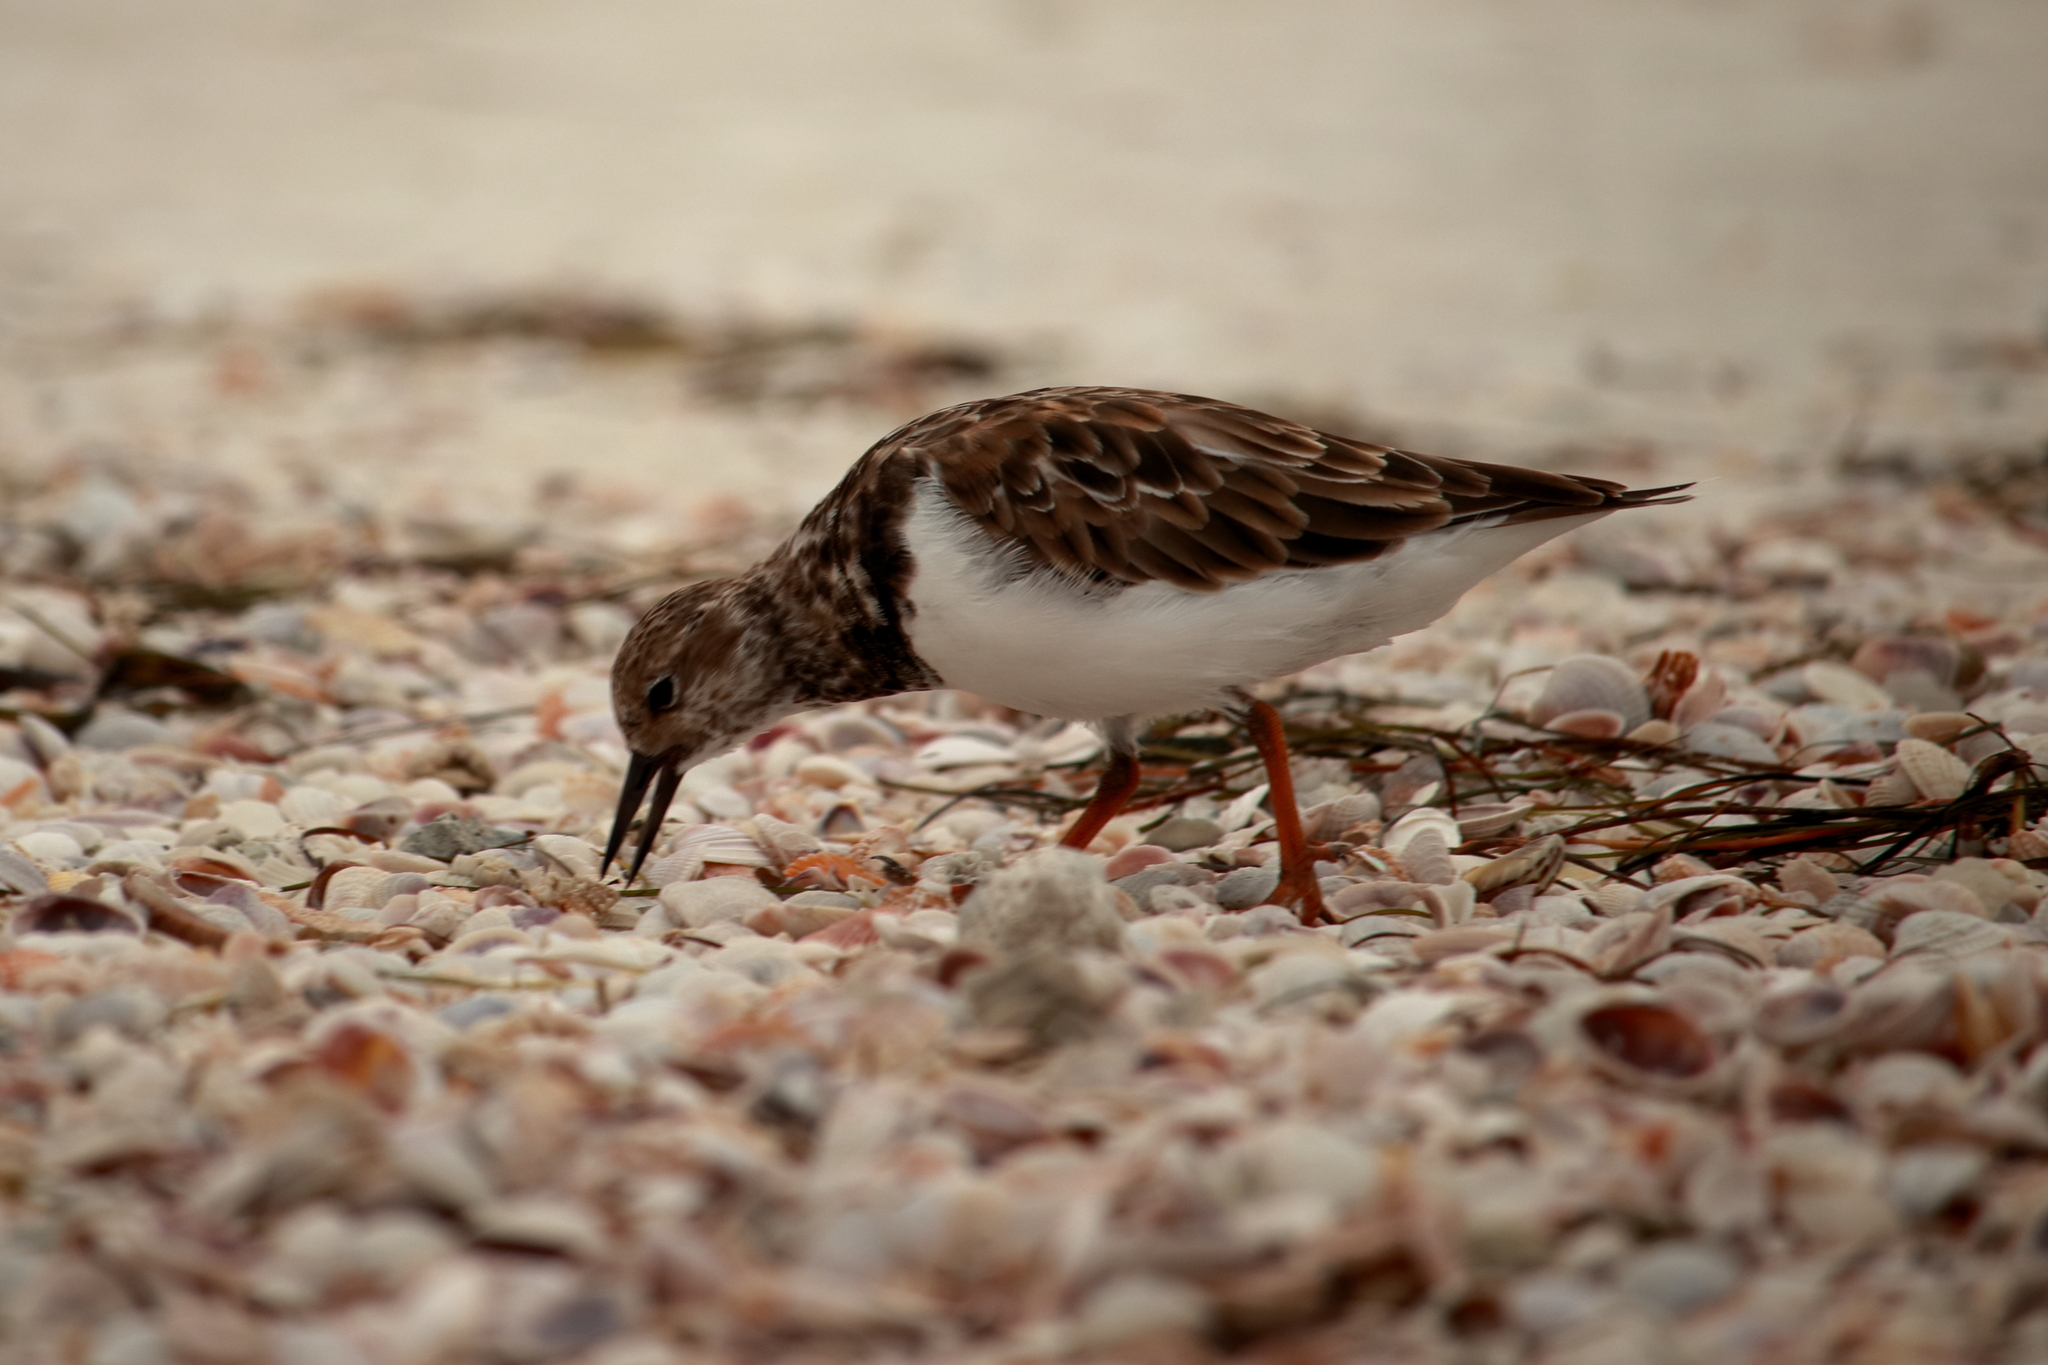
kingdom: Animalia
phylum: Chordata
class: Aves
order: Charadriiformes
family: Scolopacidae
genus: Arenaria
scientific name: Arenaria interpres
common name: Ruddy turnstone
